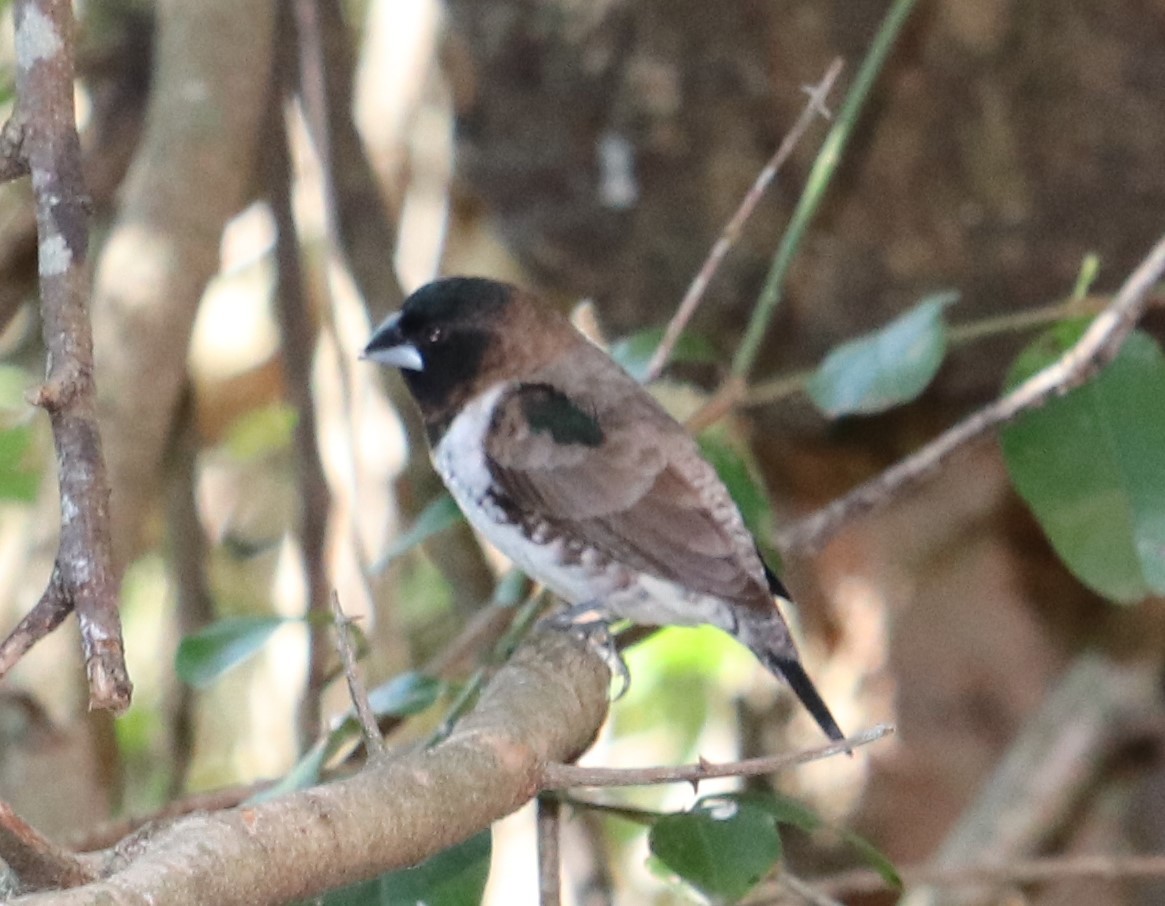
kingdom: Animalia
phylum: Chordata
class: Aves
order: Passeriformes
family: Estrildidae
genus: Lonchura
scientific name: Lonchura cucullata
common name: Bronze mannikin
